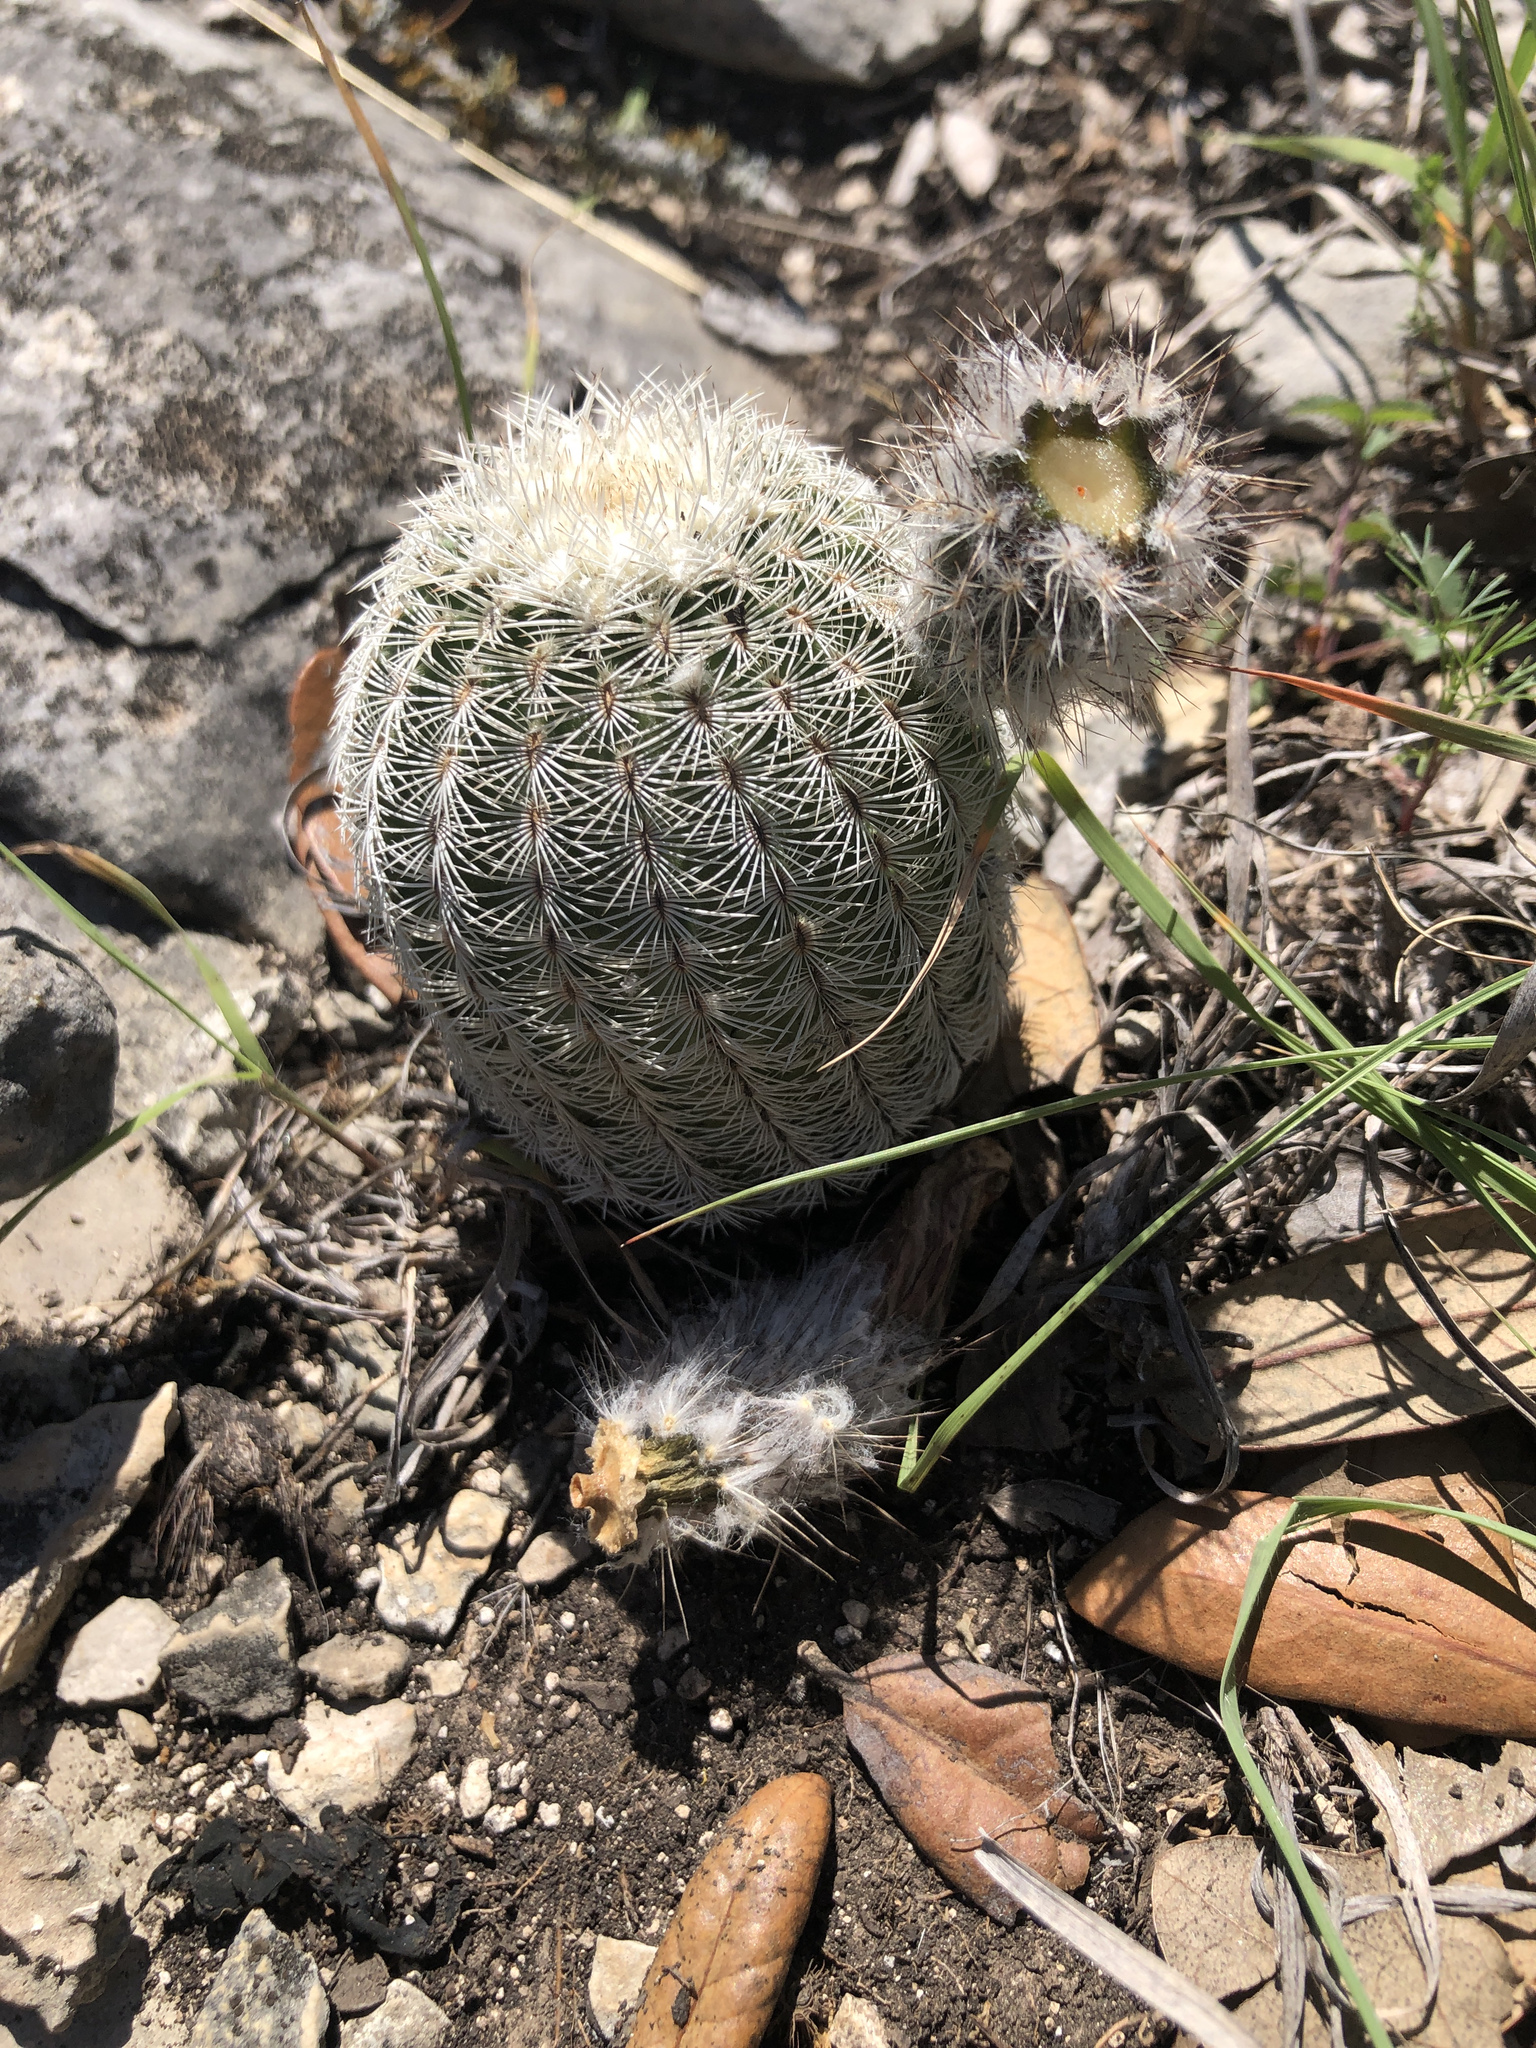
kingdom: Plantae
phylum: Tracheophyta
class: Magnoliopsida
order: Caryophyllales
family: Cactaceae
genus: Echinocereus
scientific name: Echinocereus reichenbachii
